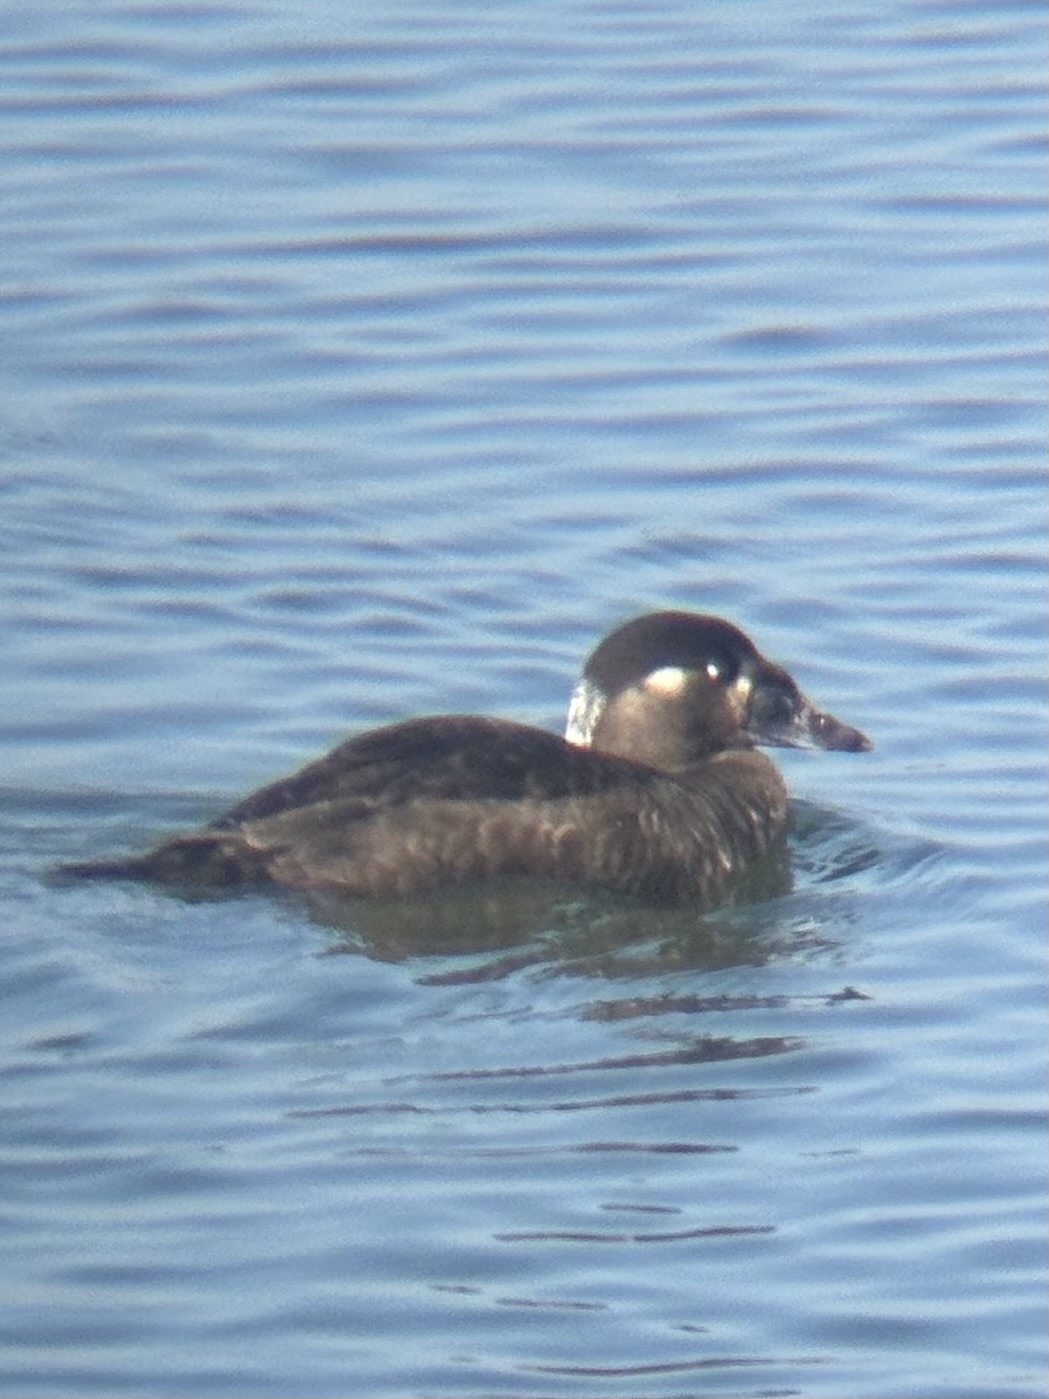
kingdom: Animalia
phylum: Chordata
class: Aves
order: Anseriformes
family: Anatidae
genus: Melanitta
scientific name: Melanitta perspicillata
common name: Surf scoter
